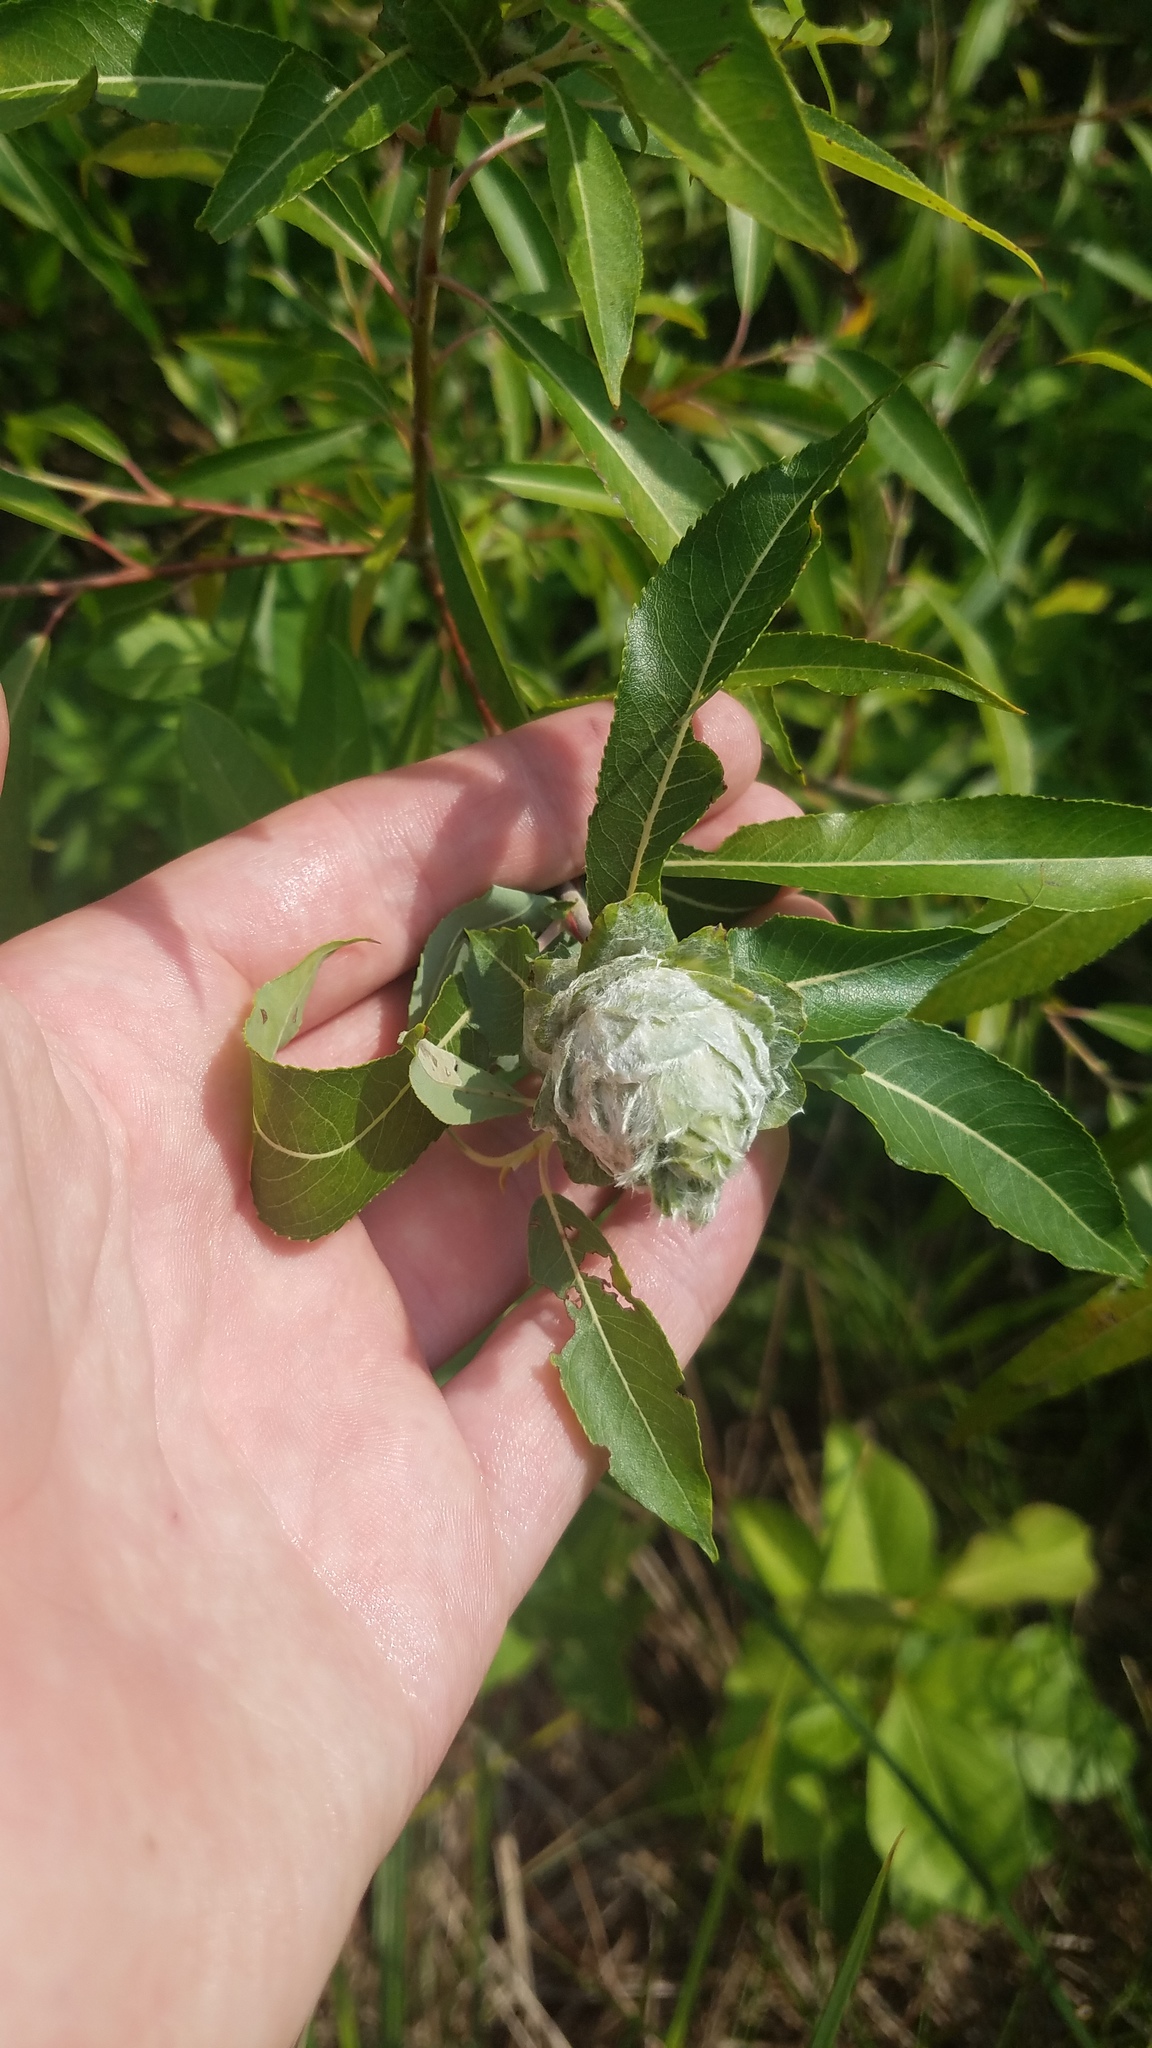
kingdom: Animalia
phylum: Arthropoda
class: Insecta
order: Diptera
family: Cecidomyiidae
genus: Rabdophaga
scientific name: Rabdophaga strobiloides
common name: Willow pinecone gall midge
